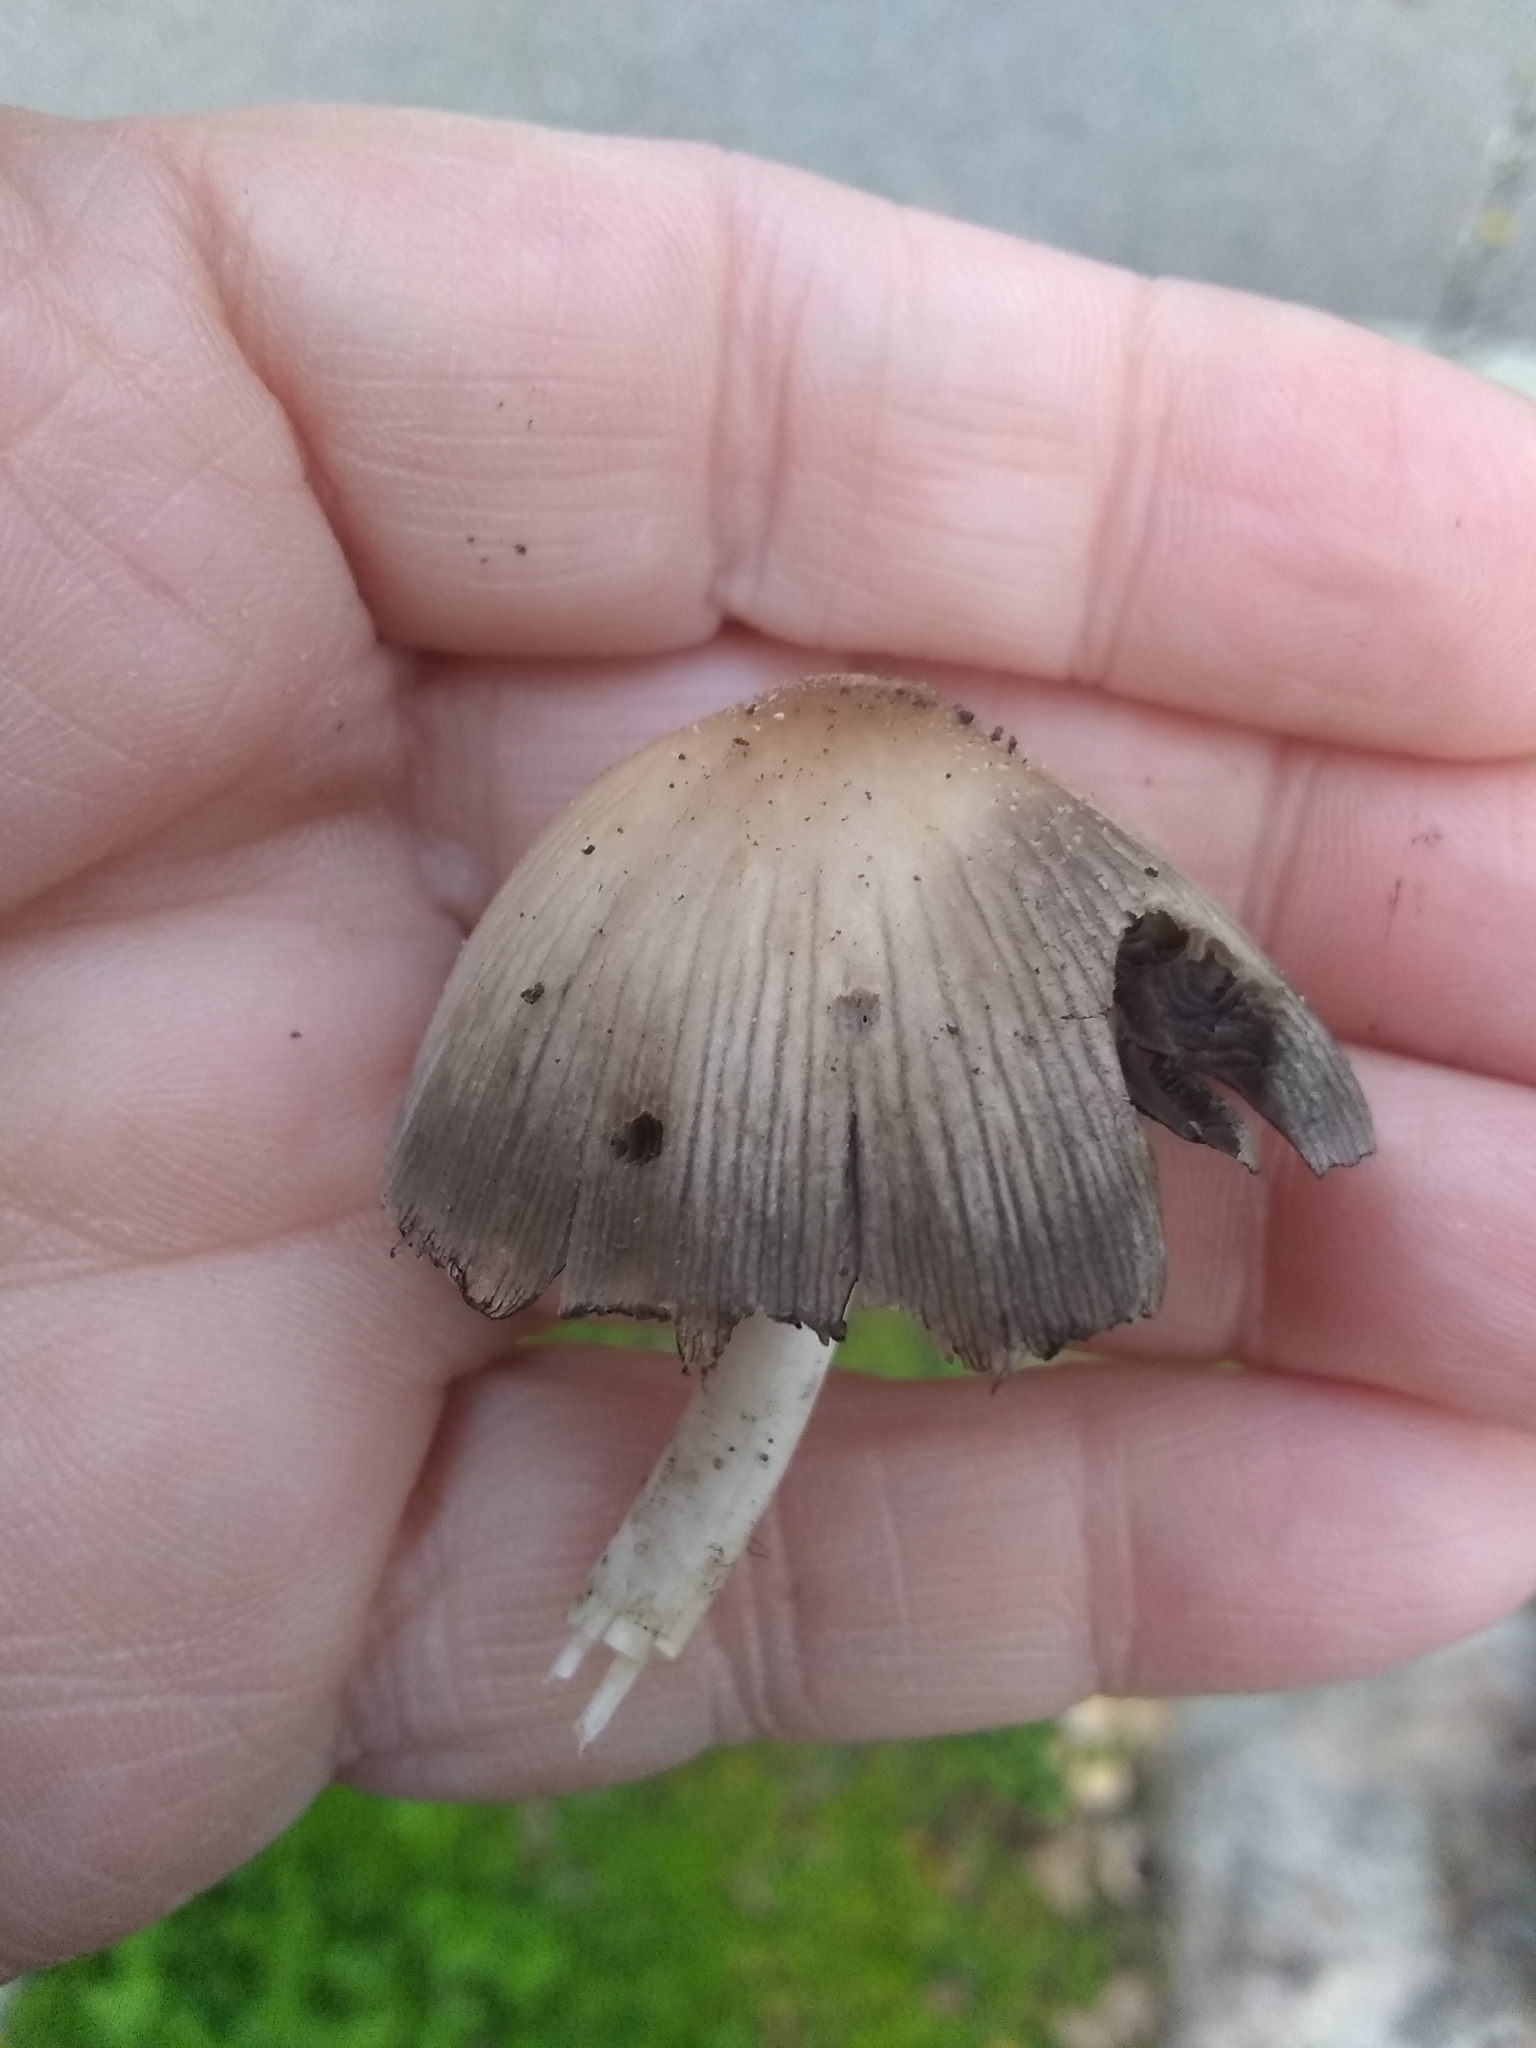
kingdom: Fungi
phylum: Basidiomycota
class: Agaricomycetes
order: Agaricales
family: Psathyrellaceae
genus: Coprinellus
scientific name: Coprinellus micaceus
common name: Glistening ink-cap
